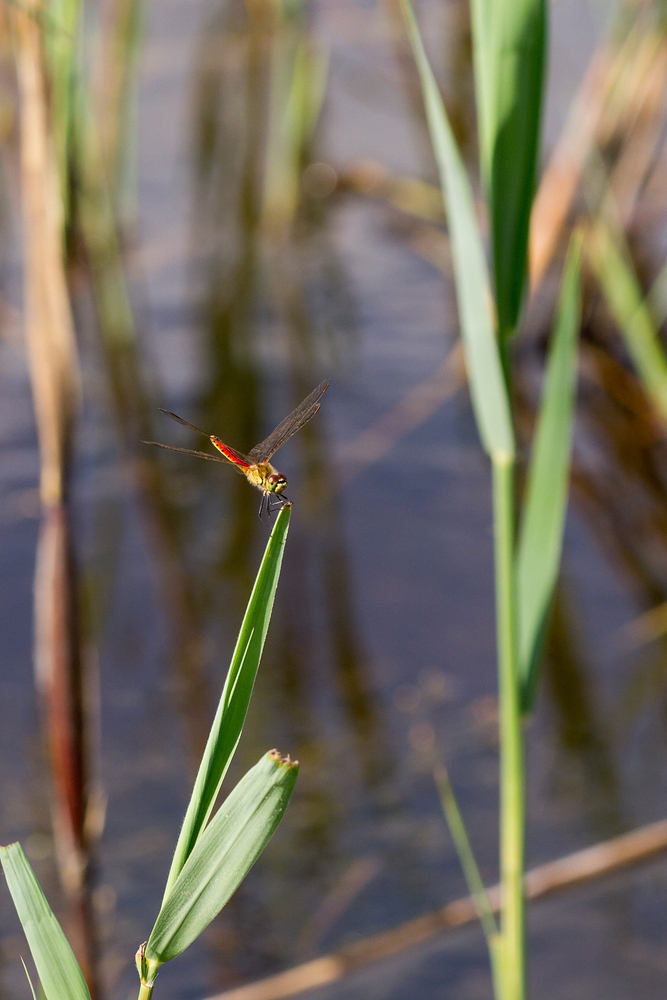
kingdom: Animalia
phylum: Arthropoda
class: Insecta
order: Odonata
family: Libellulidae
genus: Sympetrum
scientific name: Sympetrum depressiusculum
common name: Spotted darter
